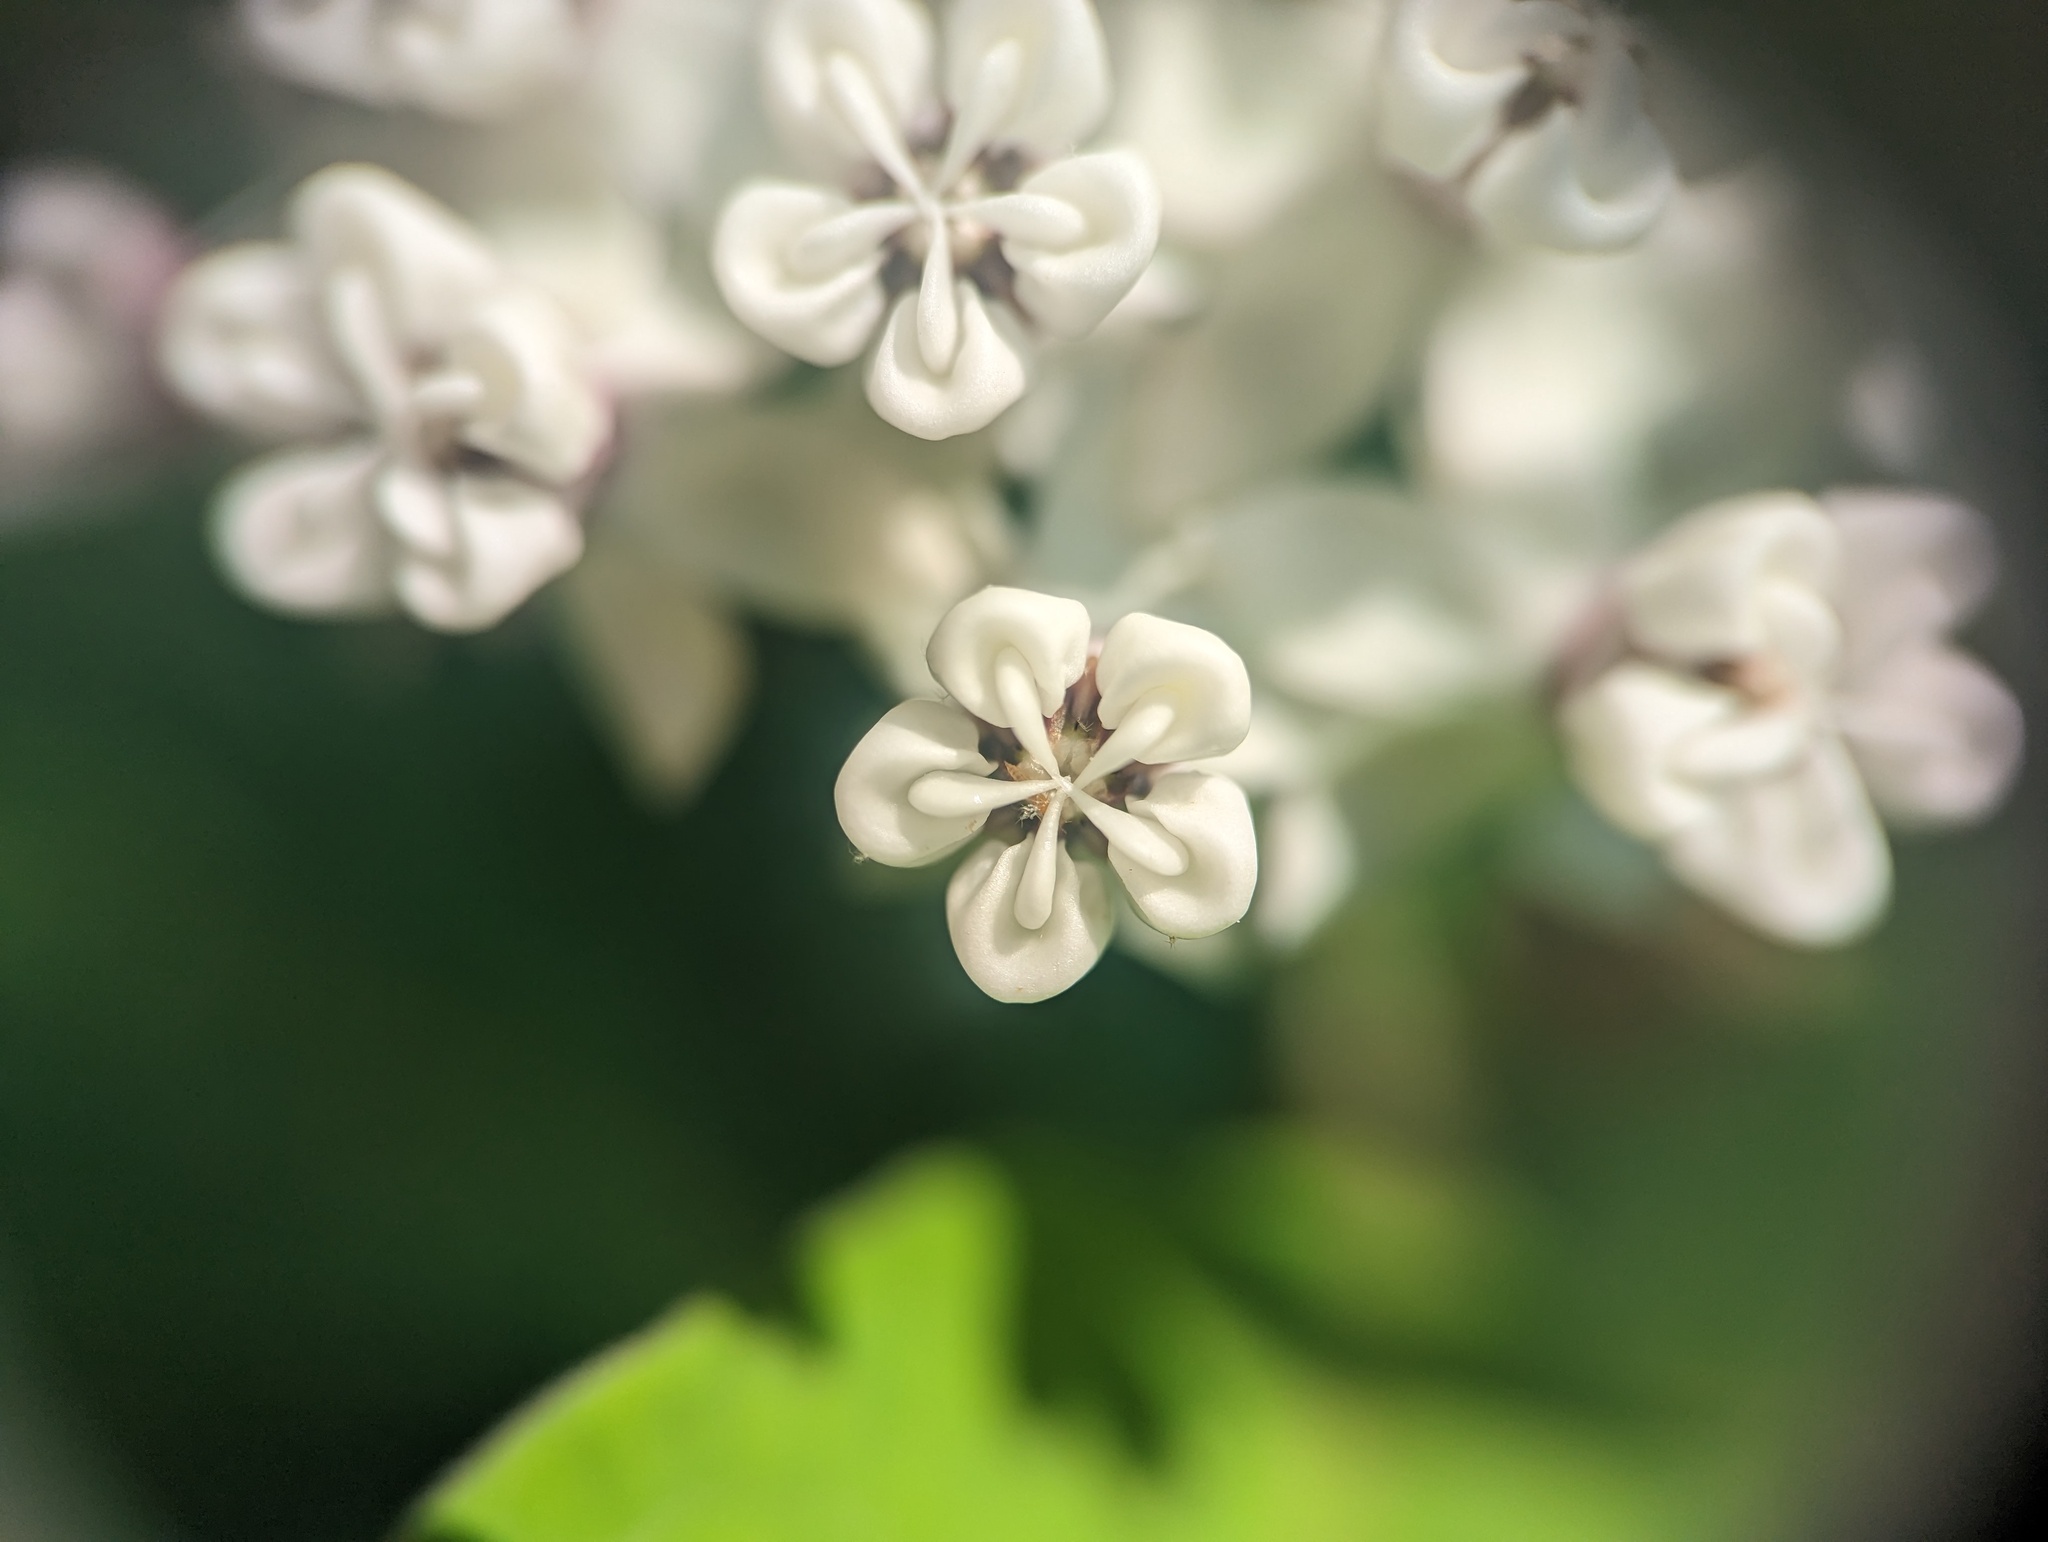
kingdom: Plantae
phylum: Tracheophyta
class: Magnoliopsida
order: Gentianales
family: Apocynaceae
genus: Asclepias
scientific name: Asclepias variegata
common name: Variegated milkweed
